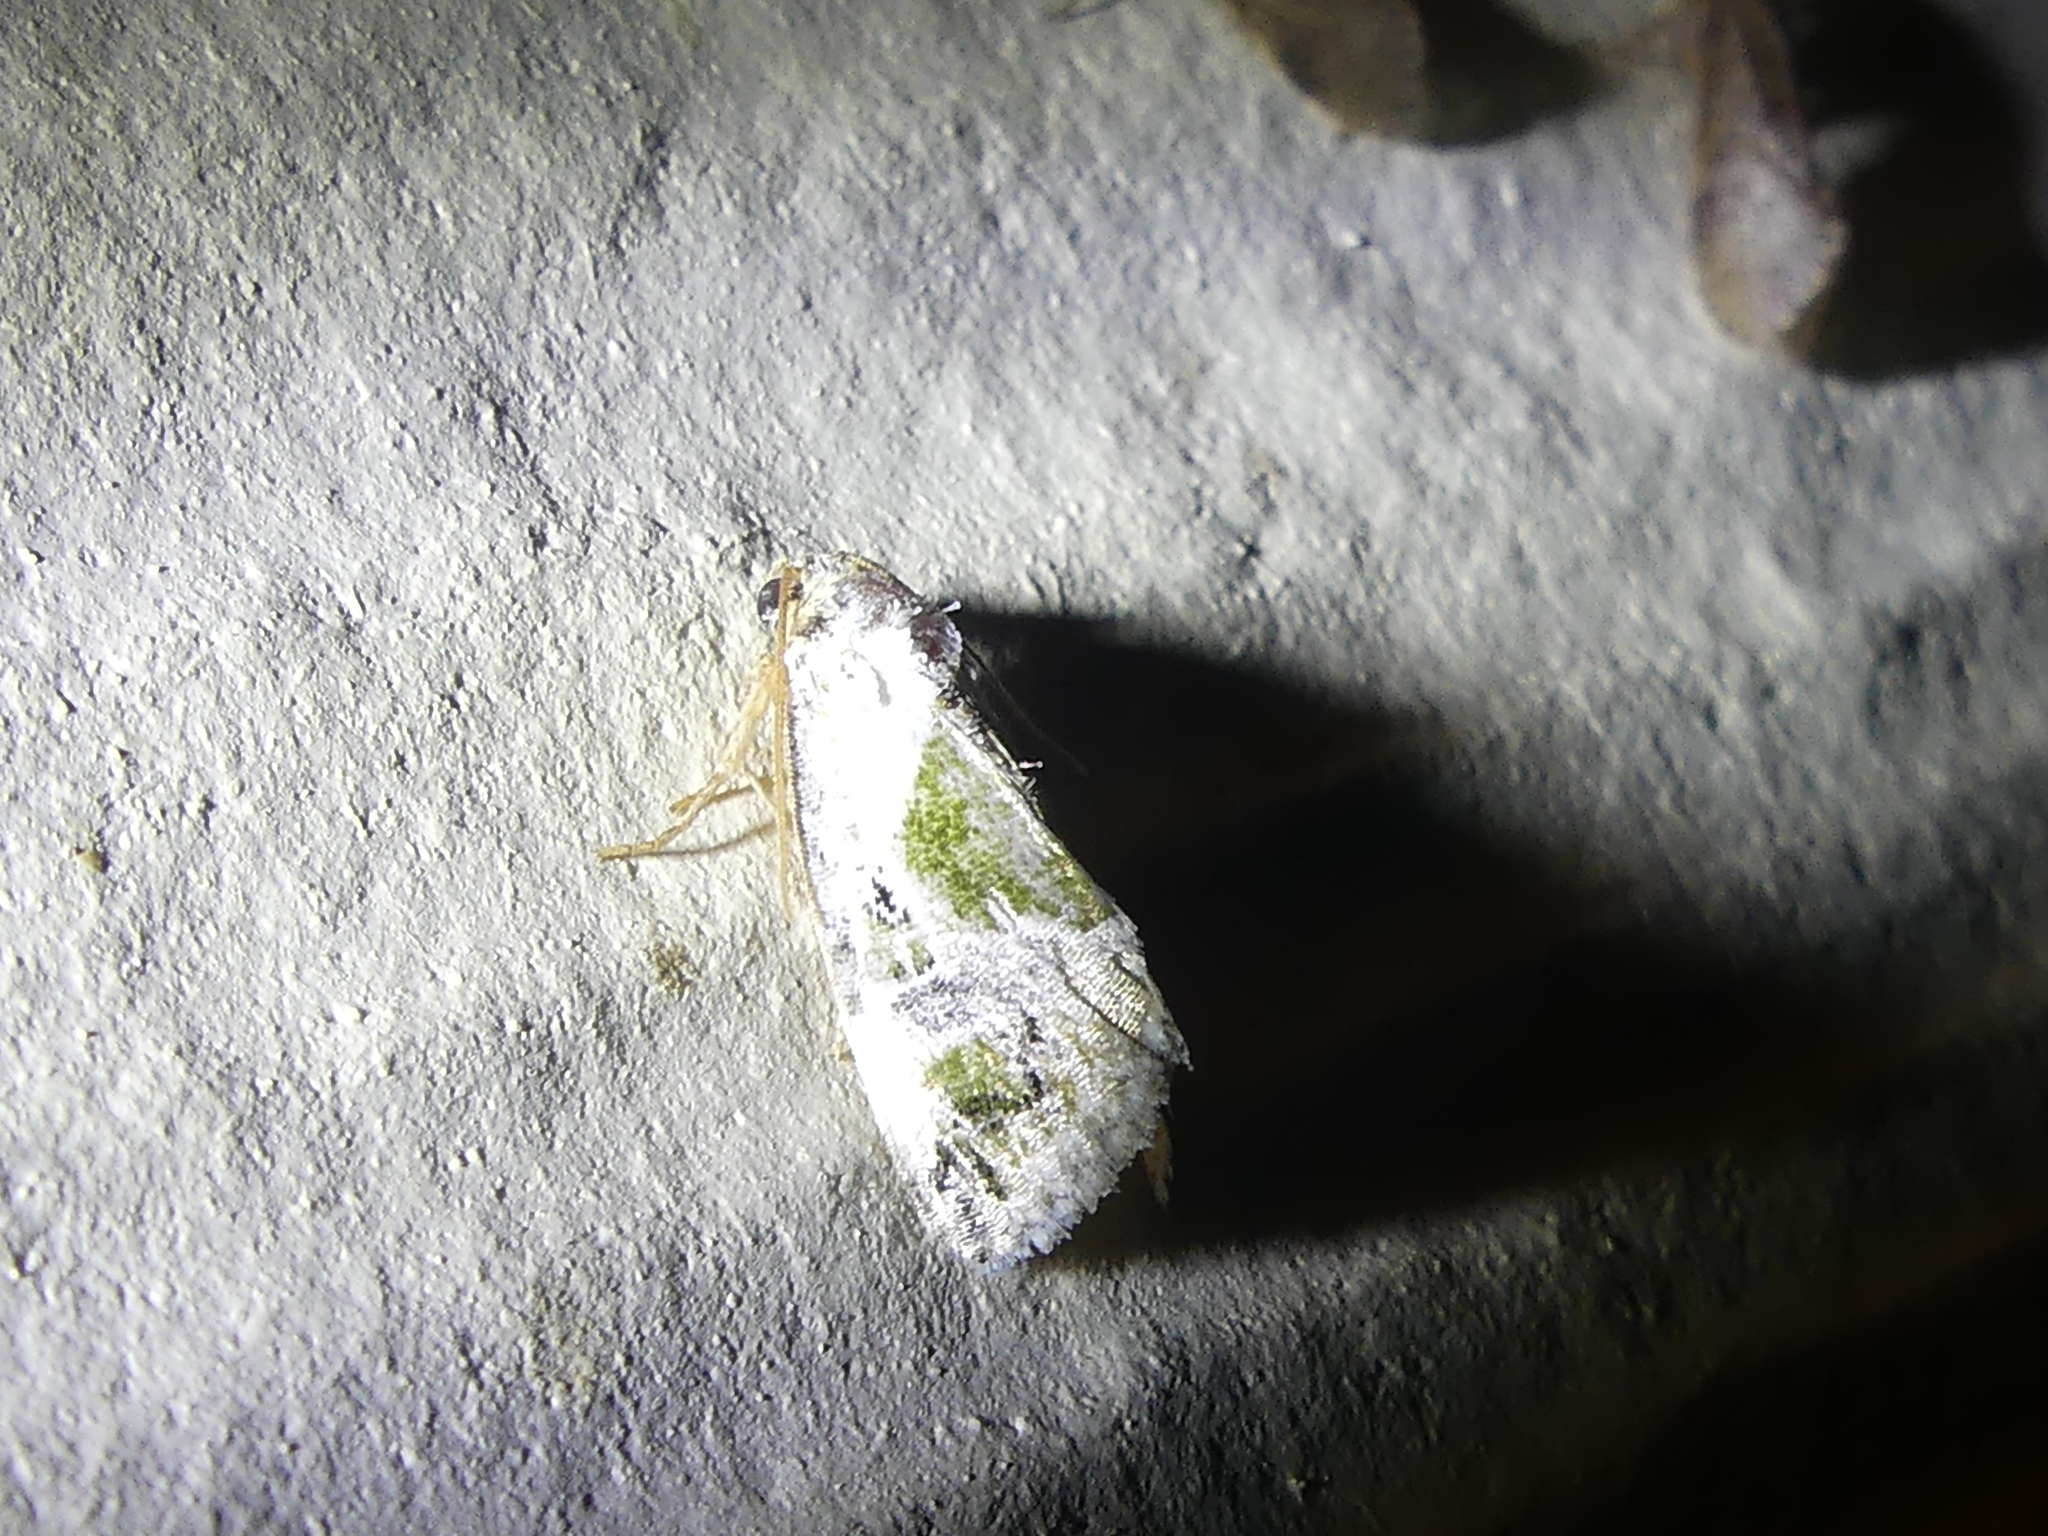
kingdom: Animalia
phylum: Arthropoda
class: Insecta
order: Lepidoptera
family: Noctuidae
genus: Maliattha
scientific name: Maliattha synochitis
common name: Black-dotted glyph
